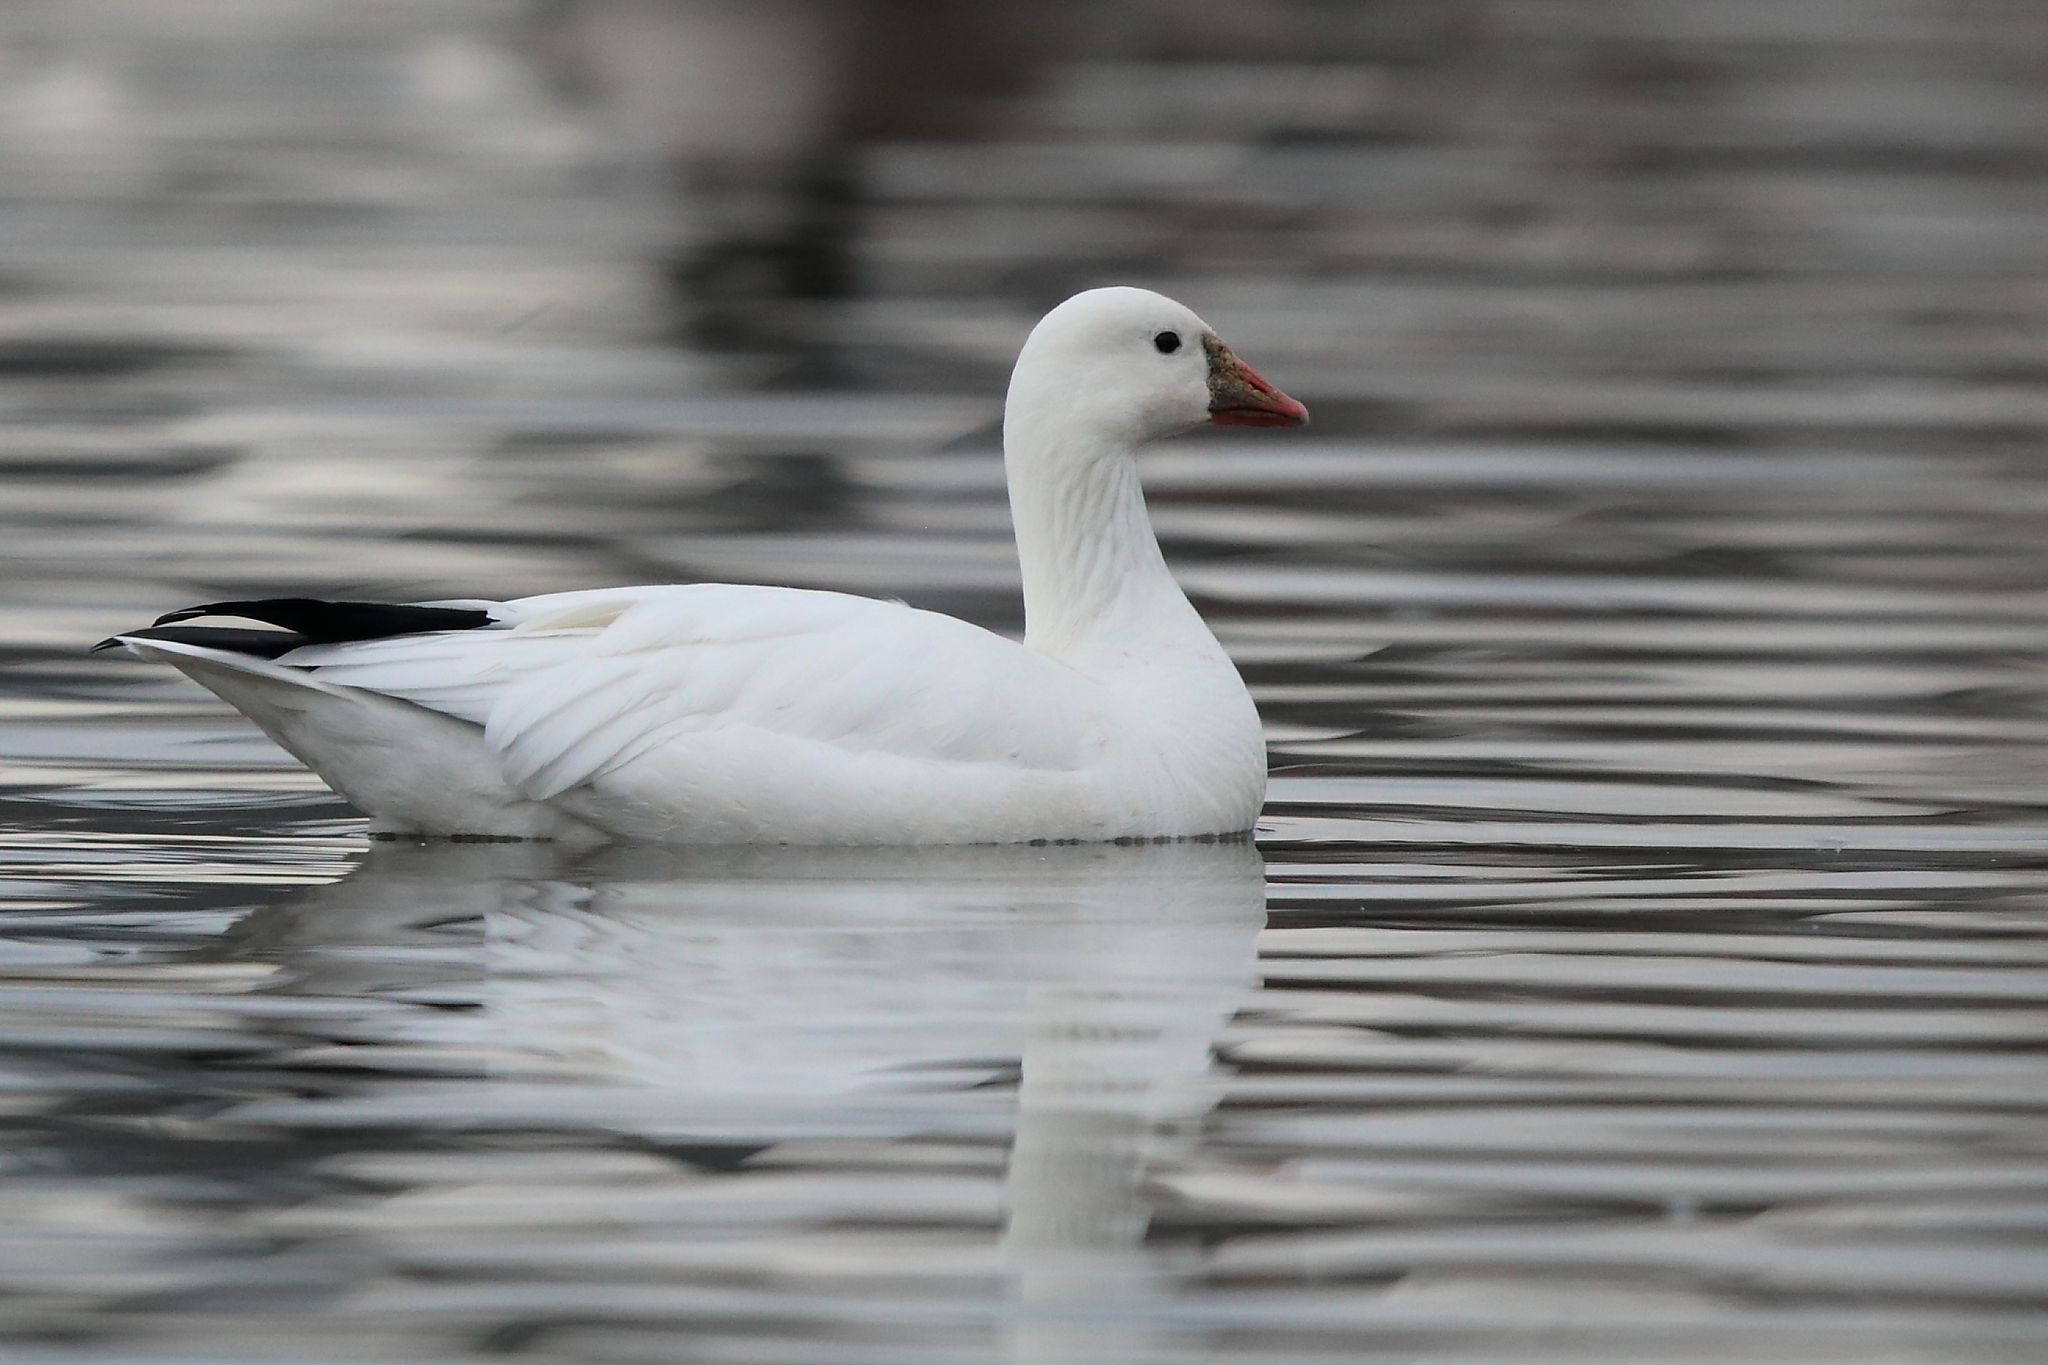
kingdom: Animalia
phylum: Chordata
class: Aves
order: Anseriformes
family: Anatidae
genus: Anser
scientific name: Anser rossii
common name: Ross's goose
